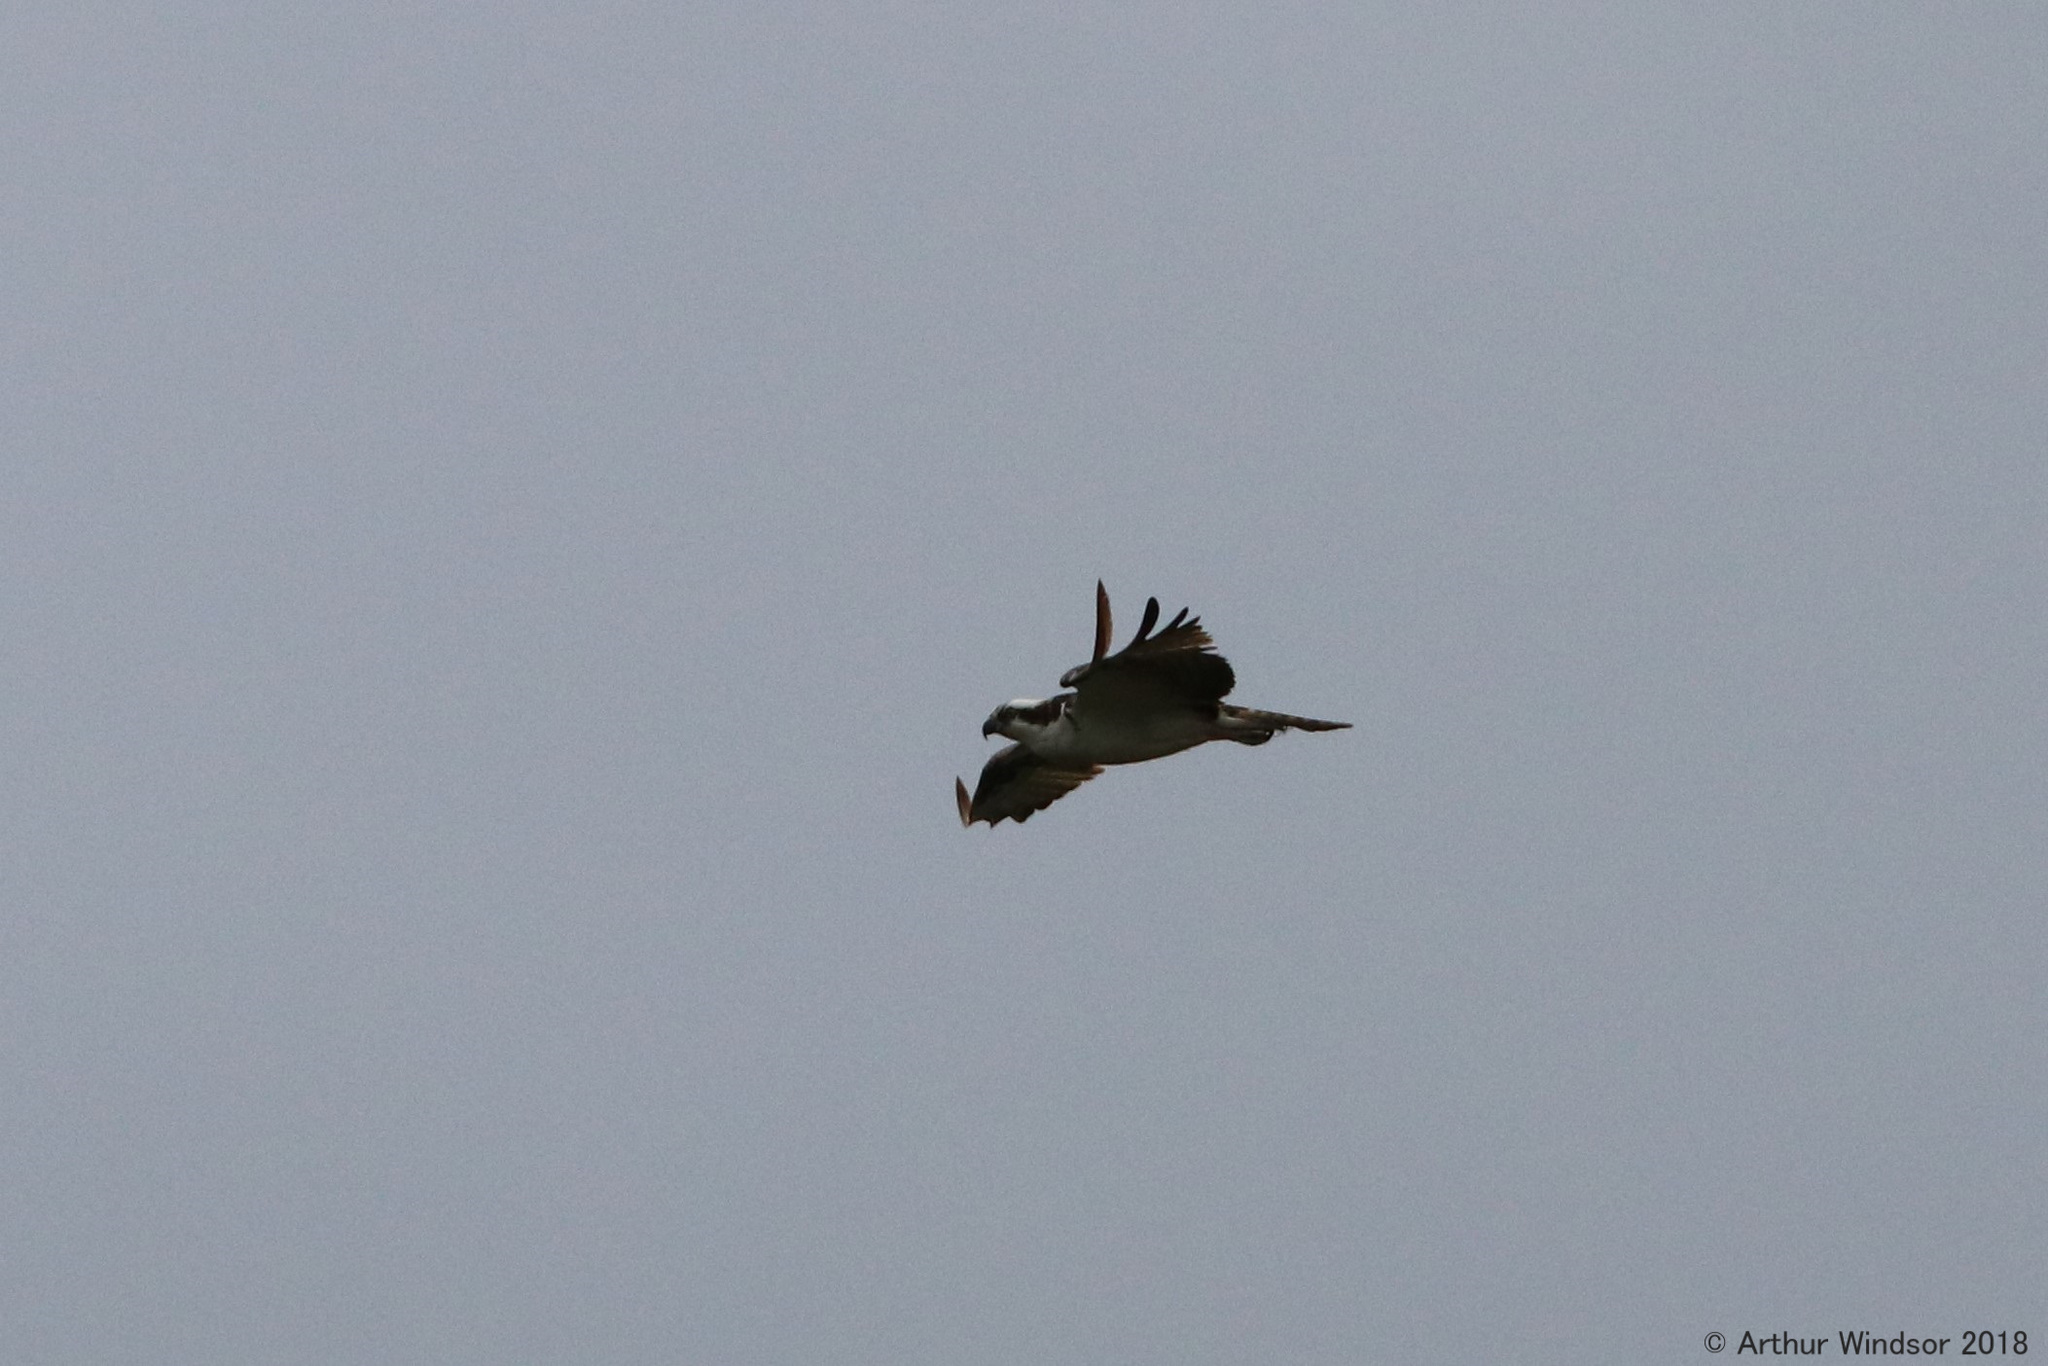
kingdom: Animalia
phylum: Chordata
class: Aves
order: Accipitriformes
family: Pandionidae
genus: Pandion
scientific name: Pandion haliaetus
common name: Osprey
